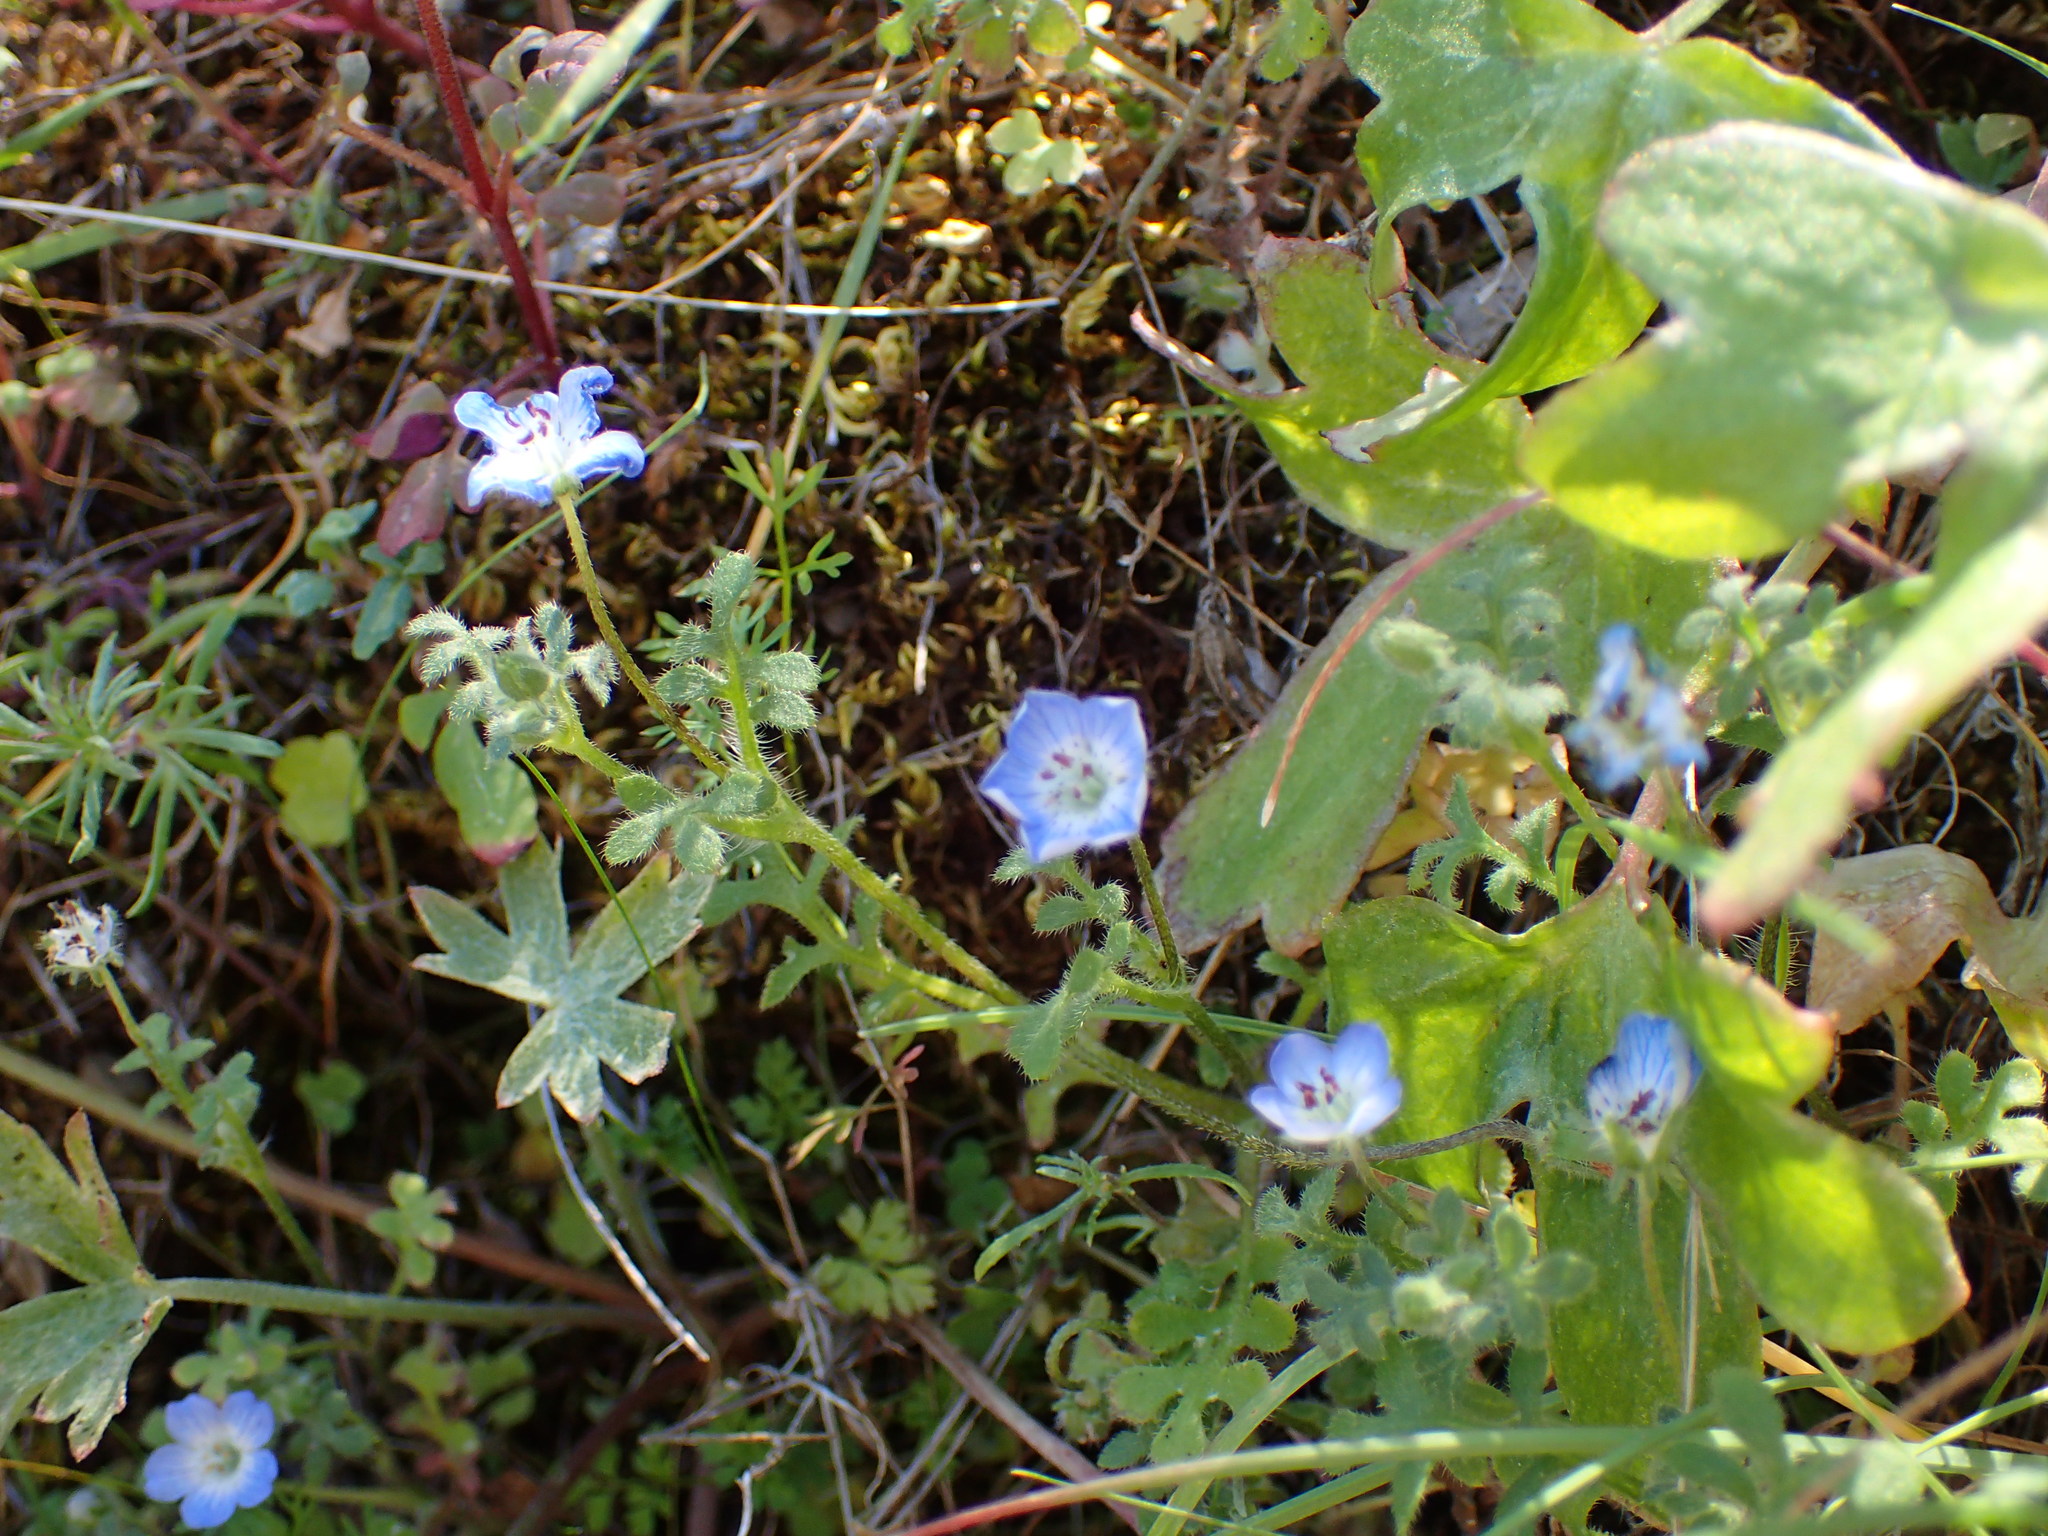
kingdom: Plantae
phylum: Tracheophyta
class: Magnoliopsida
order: Boraginales
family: Hydrophyllaceae
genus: Nemophila
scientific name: Nemophila menziesii
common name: Baby's-blue-eyes
